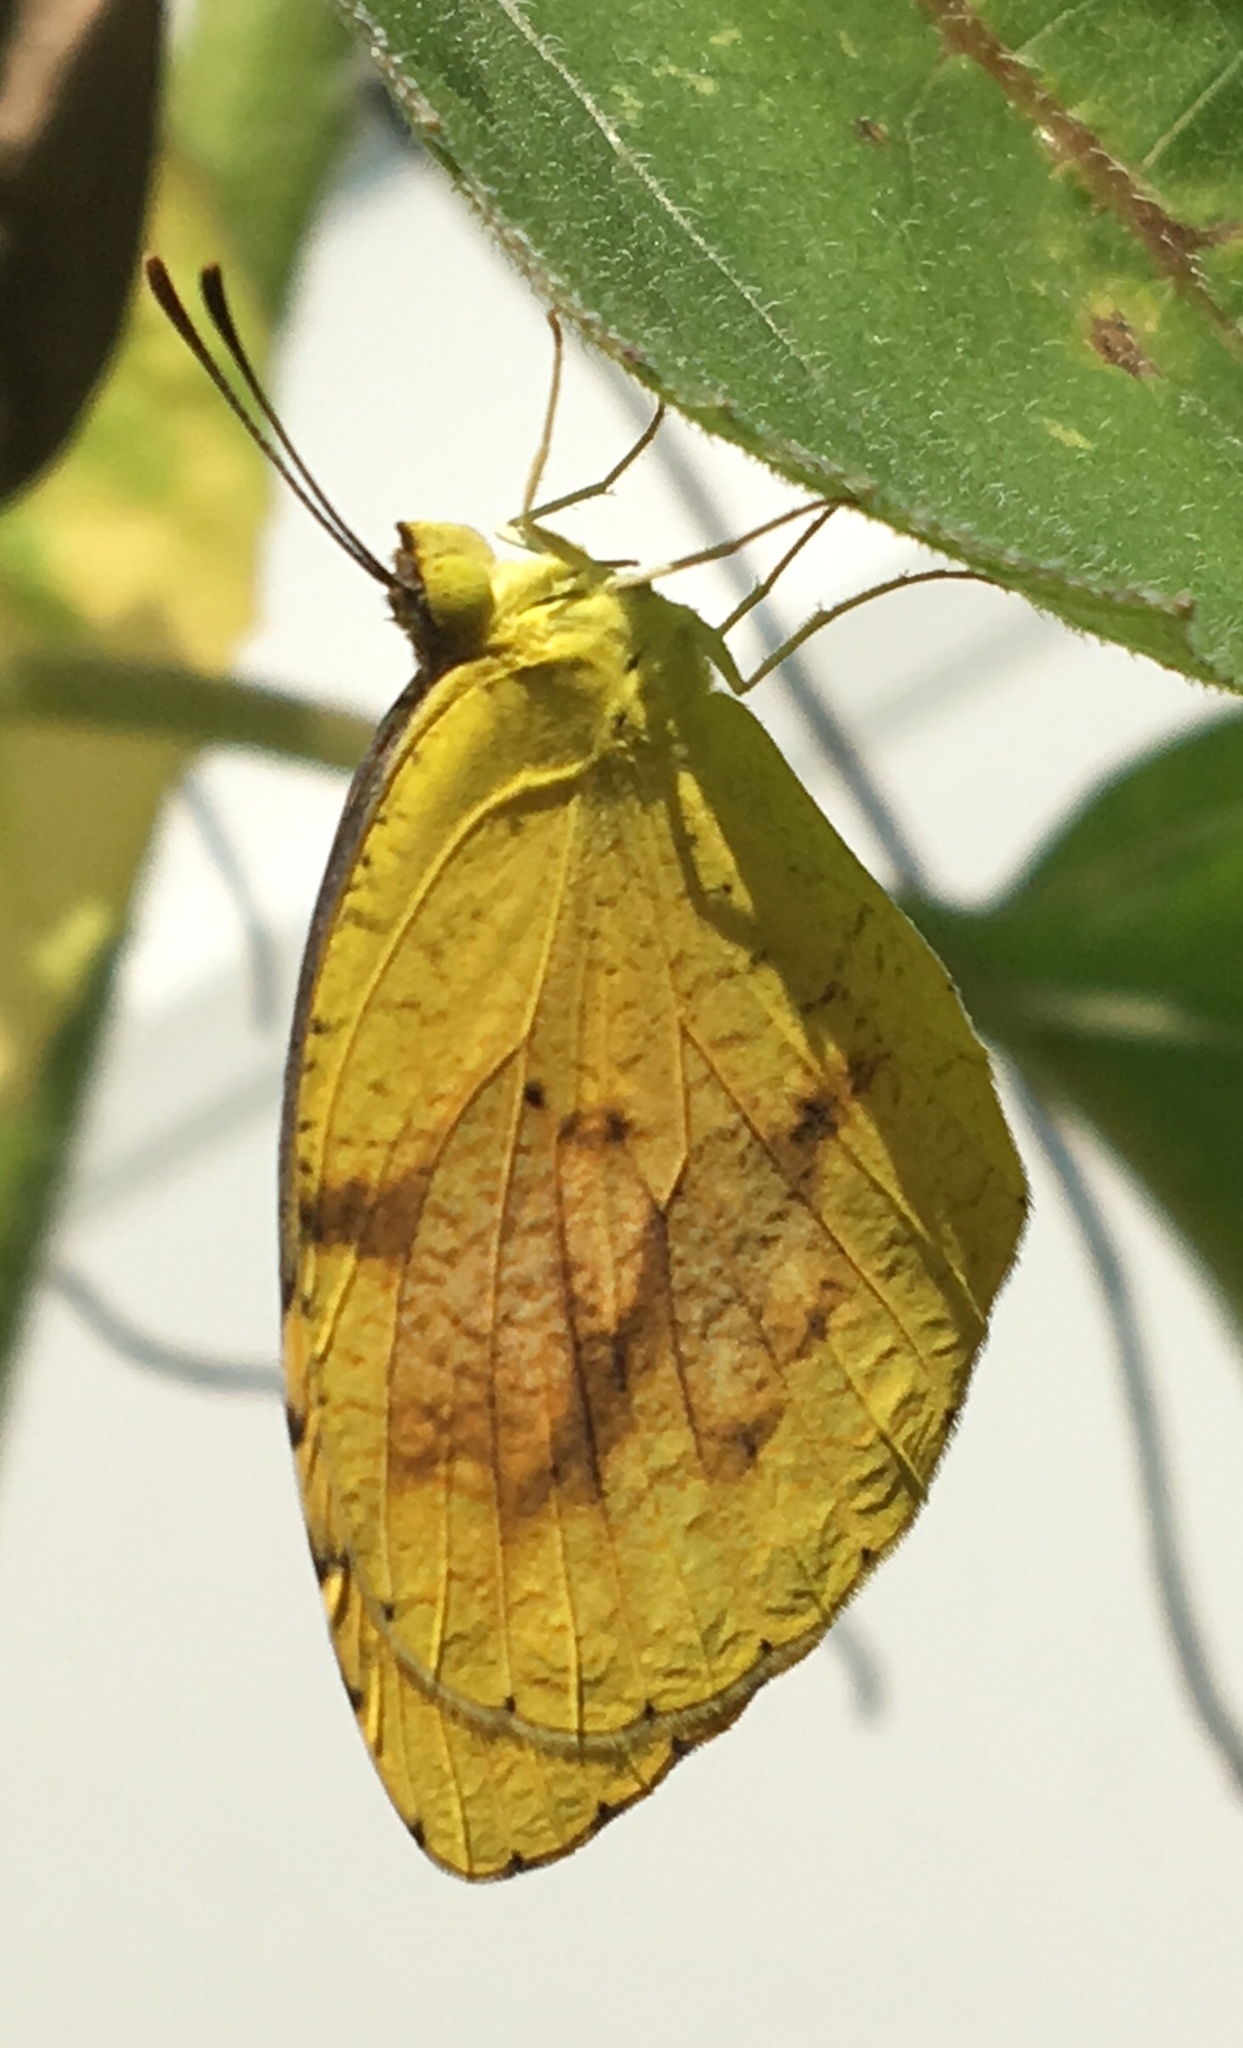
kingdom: Animalia
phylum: Arthropoda
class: Insecta
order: Lepidoptera
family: Pieridae
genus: Abaeis
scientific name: Abaeis nicippe
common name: Sleepy orange
